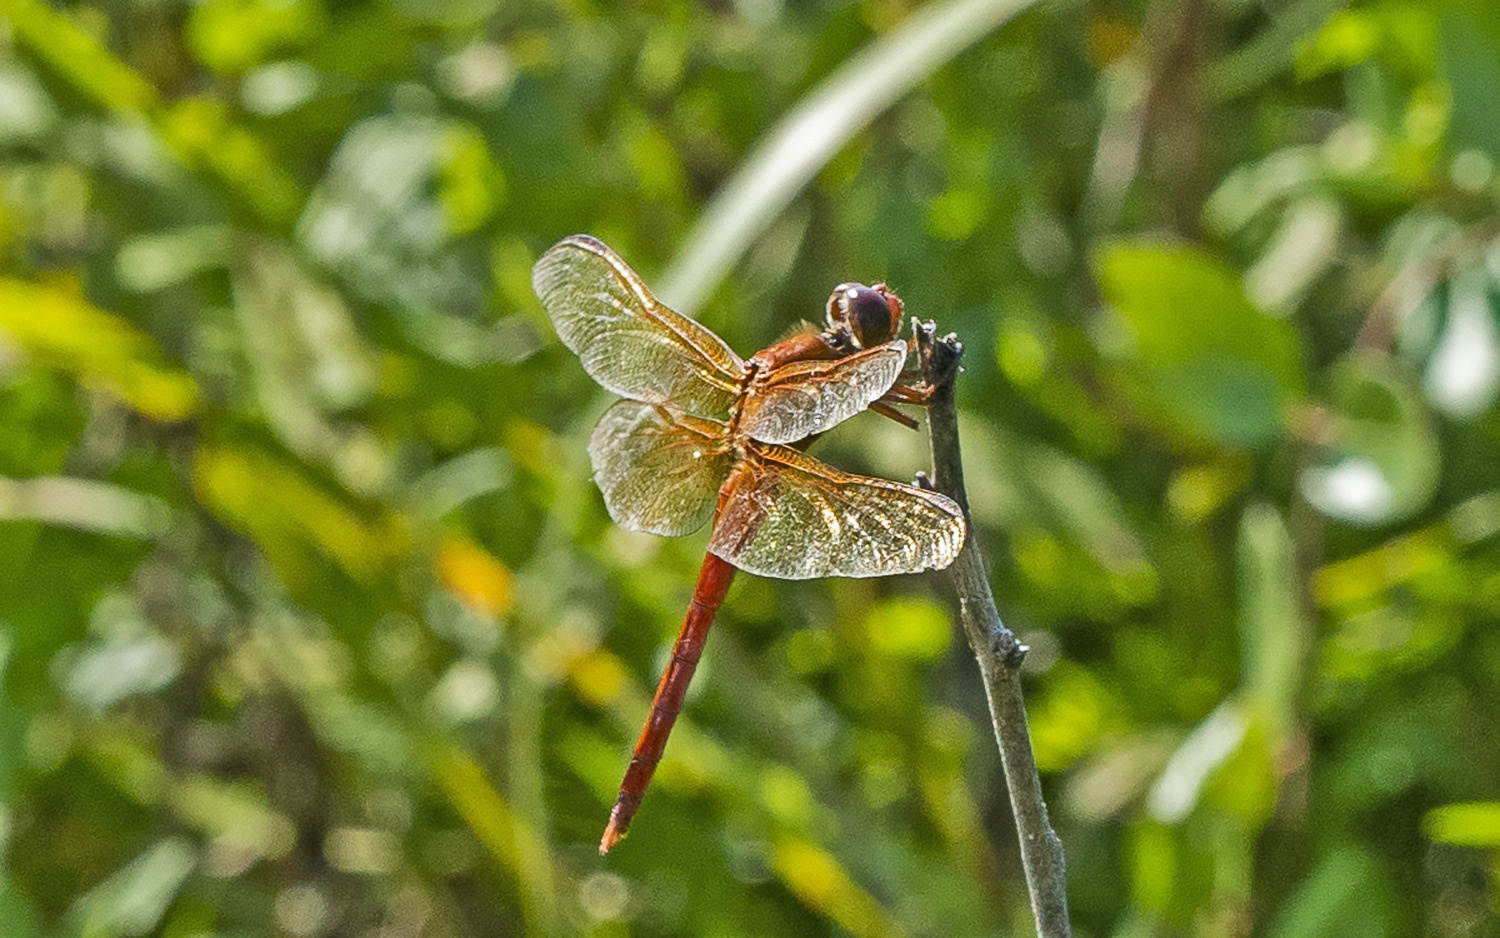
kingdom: Animalia
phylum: Arthropoda
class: Insecta
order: Odonata
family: Libellulidae
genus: Libellula
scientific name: Libellula needhami
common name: Needham's skimmer
